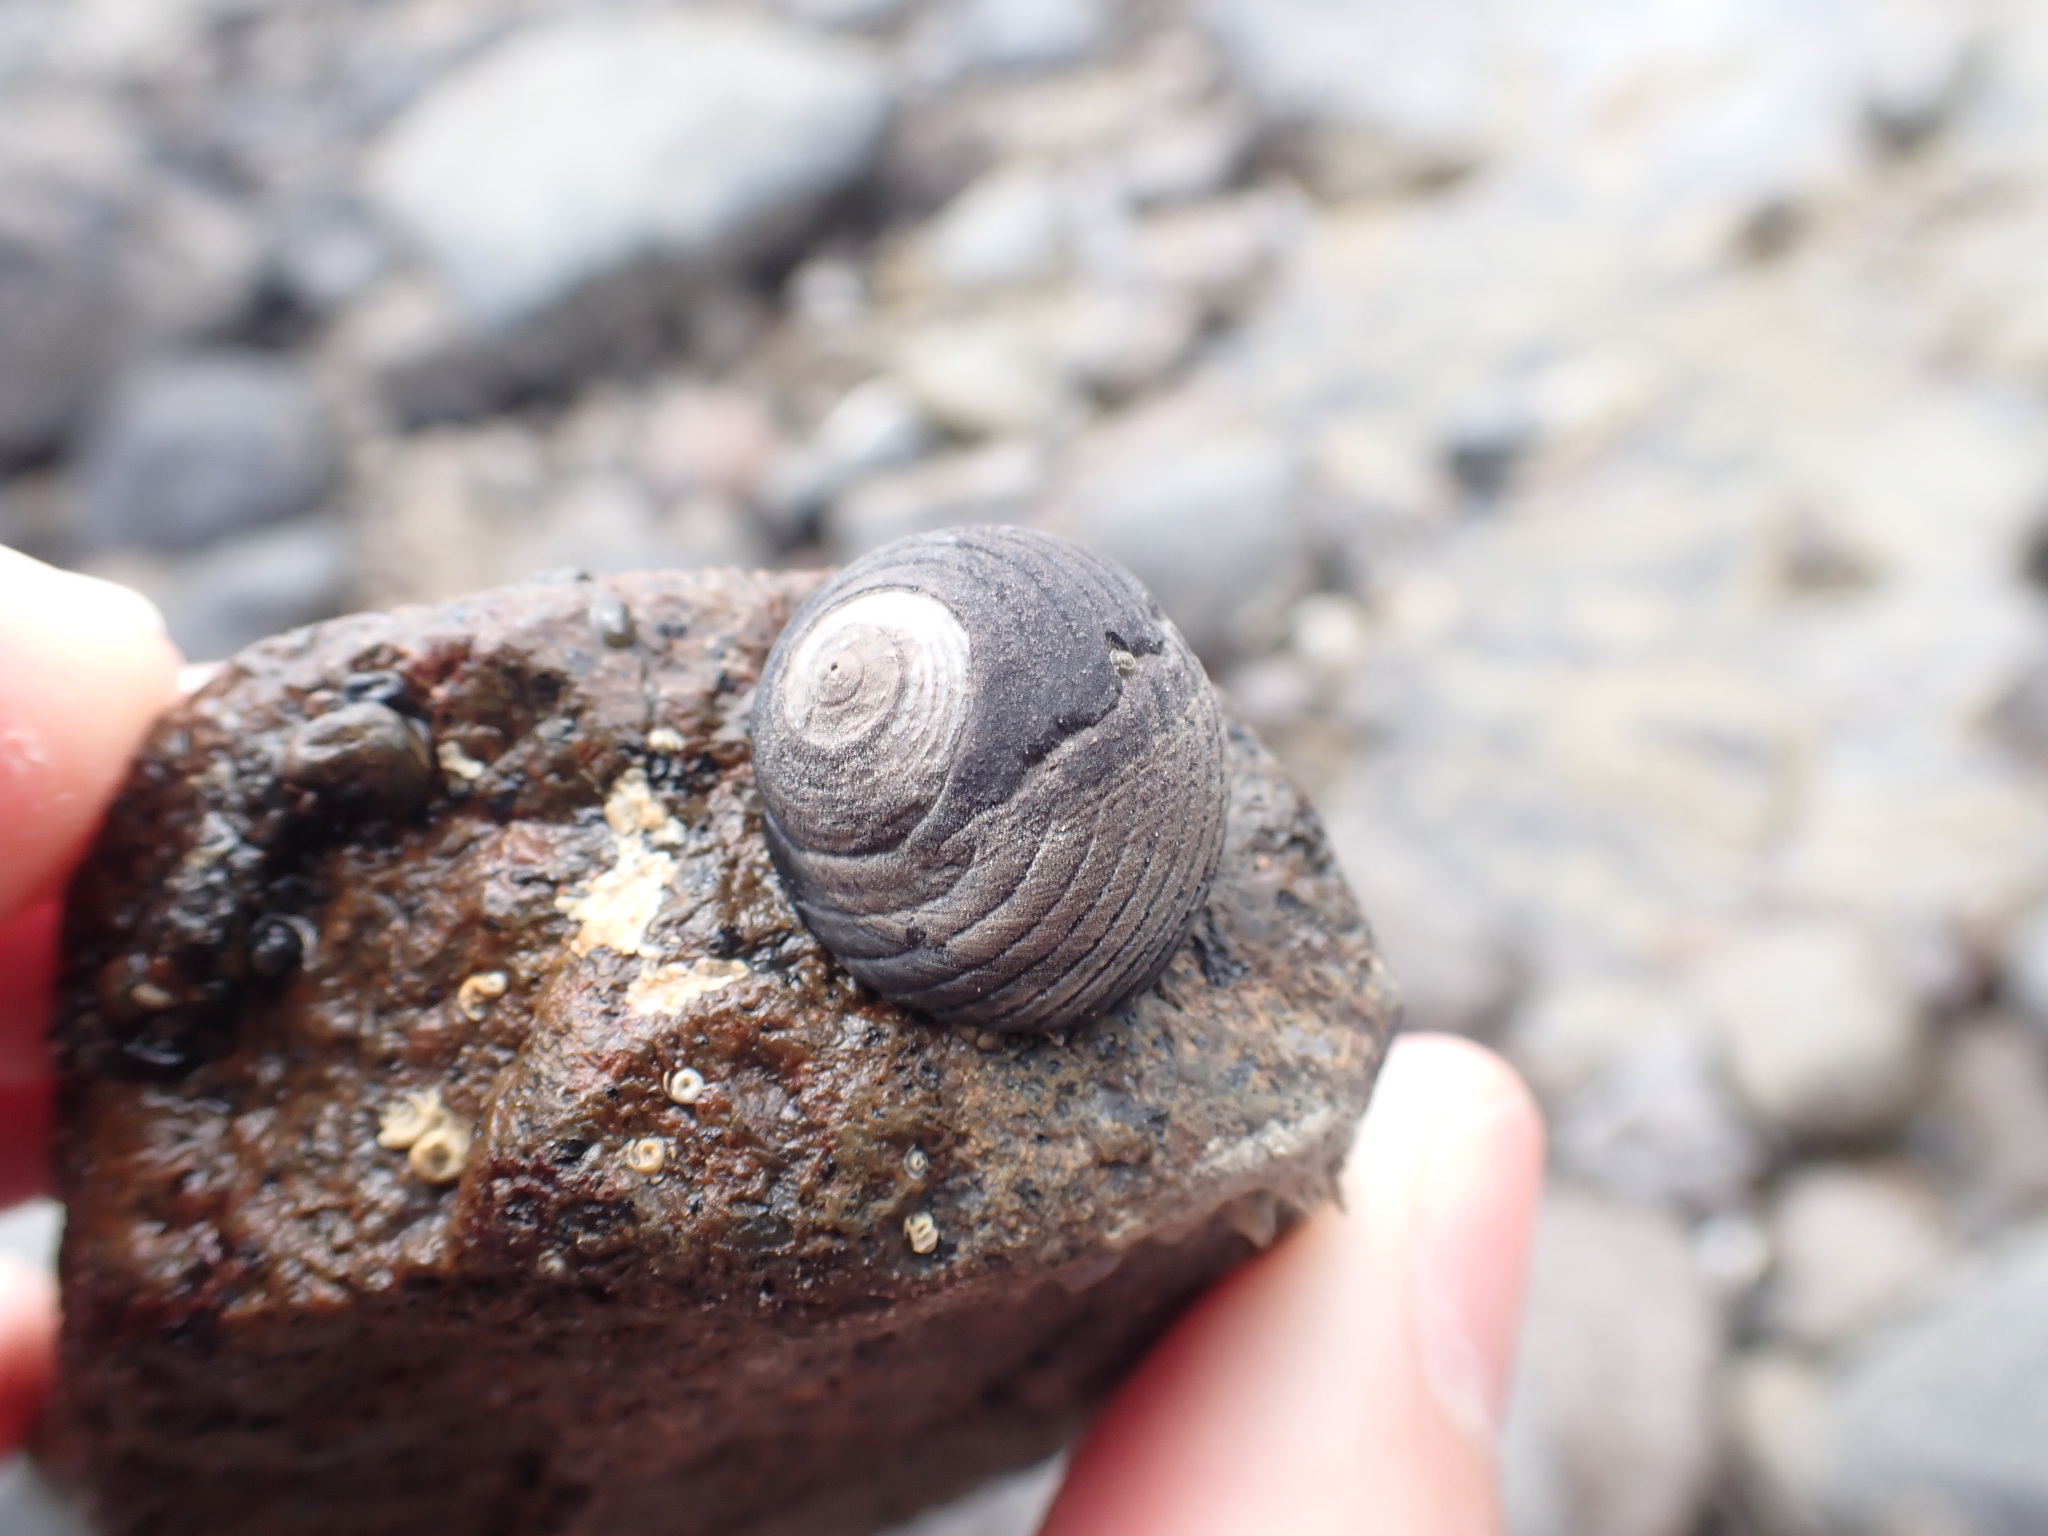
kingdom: Animalia
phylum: Mollusca
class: Gastropoda
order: Trochida
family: Trochidae
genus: Diloma
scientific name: Diloma zelandicum
